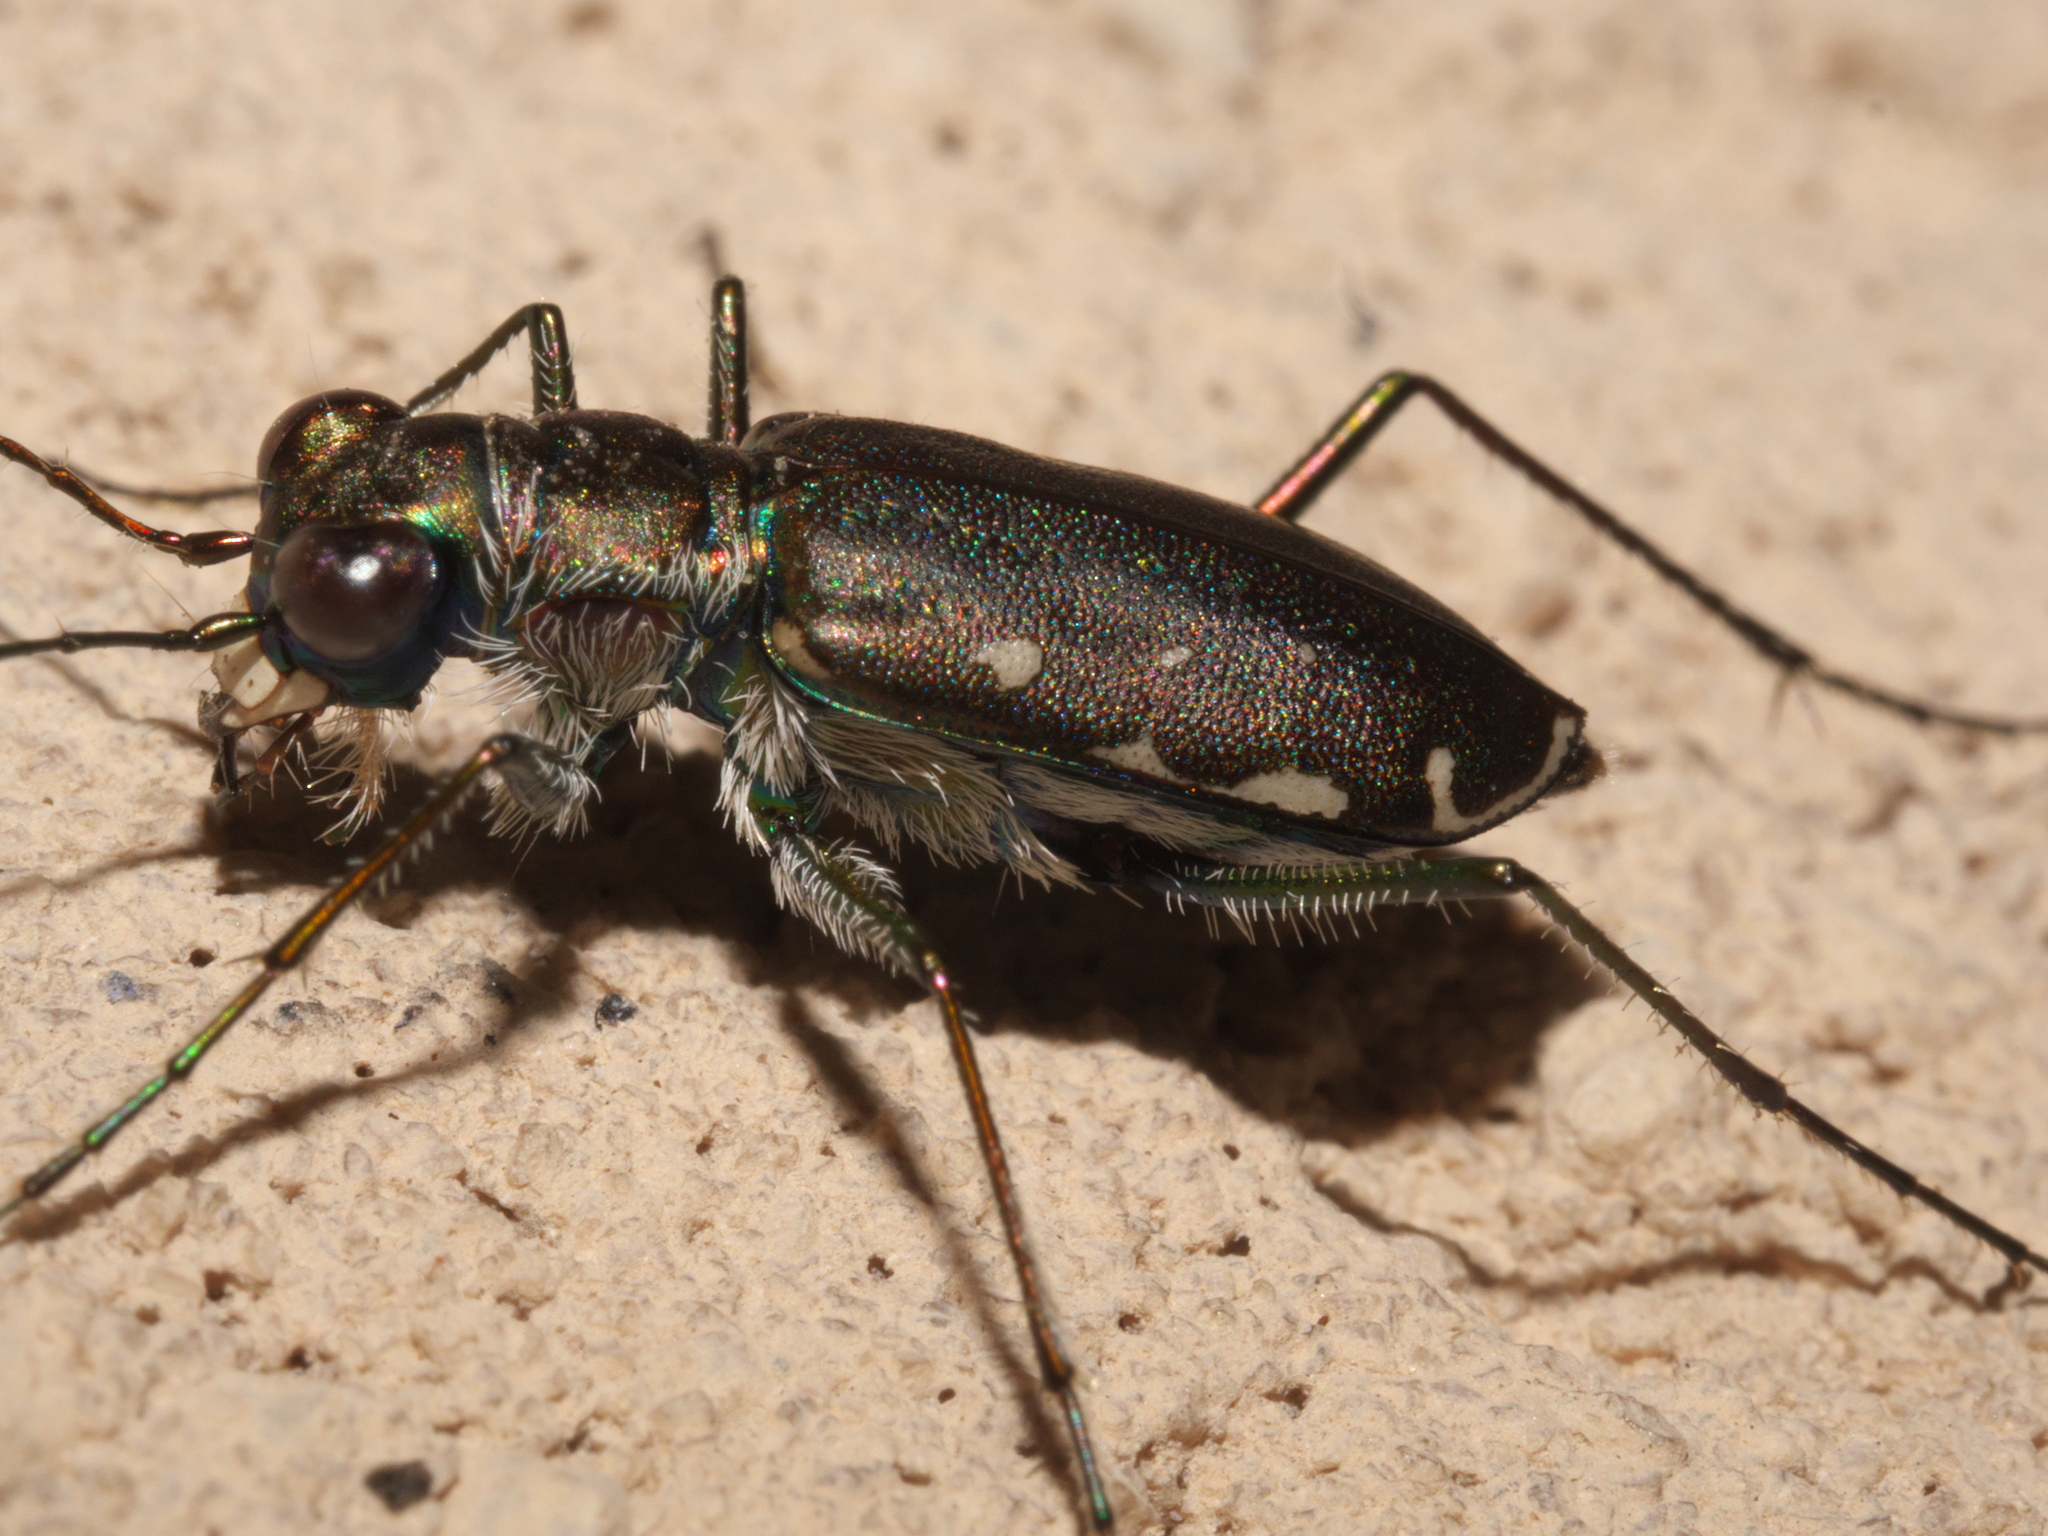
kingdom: Animalia
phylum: Arthropoda
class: Insecta
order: Coleoptera
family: Carabidae
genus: Cicindela
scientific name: Cicindela punctulata
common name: Punctured tiger beetle
